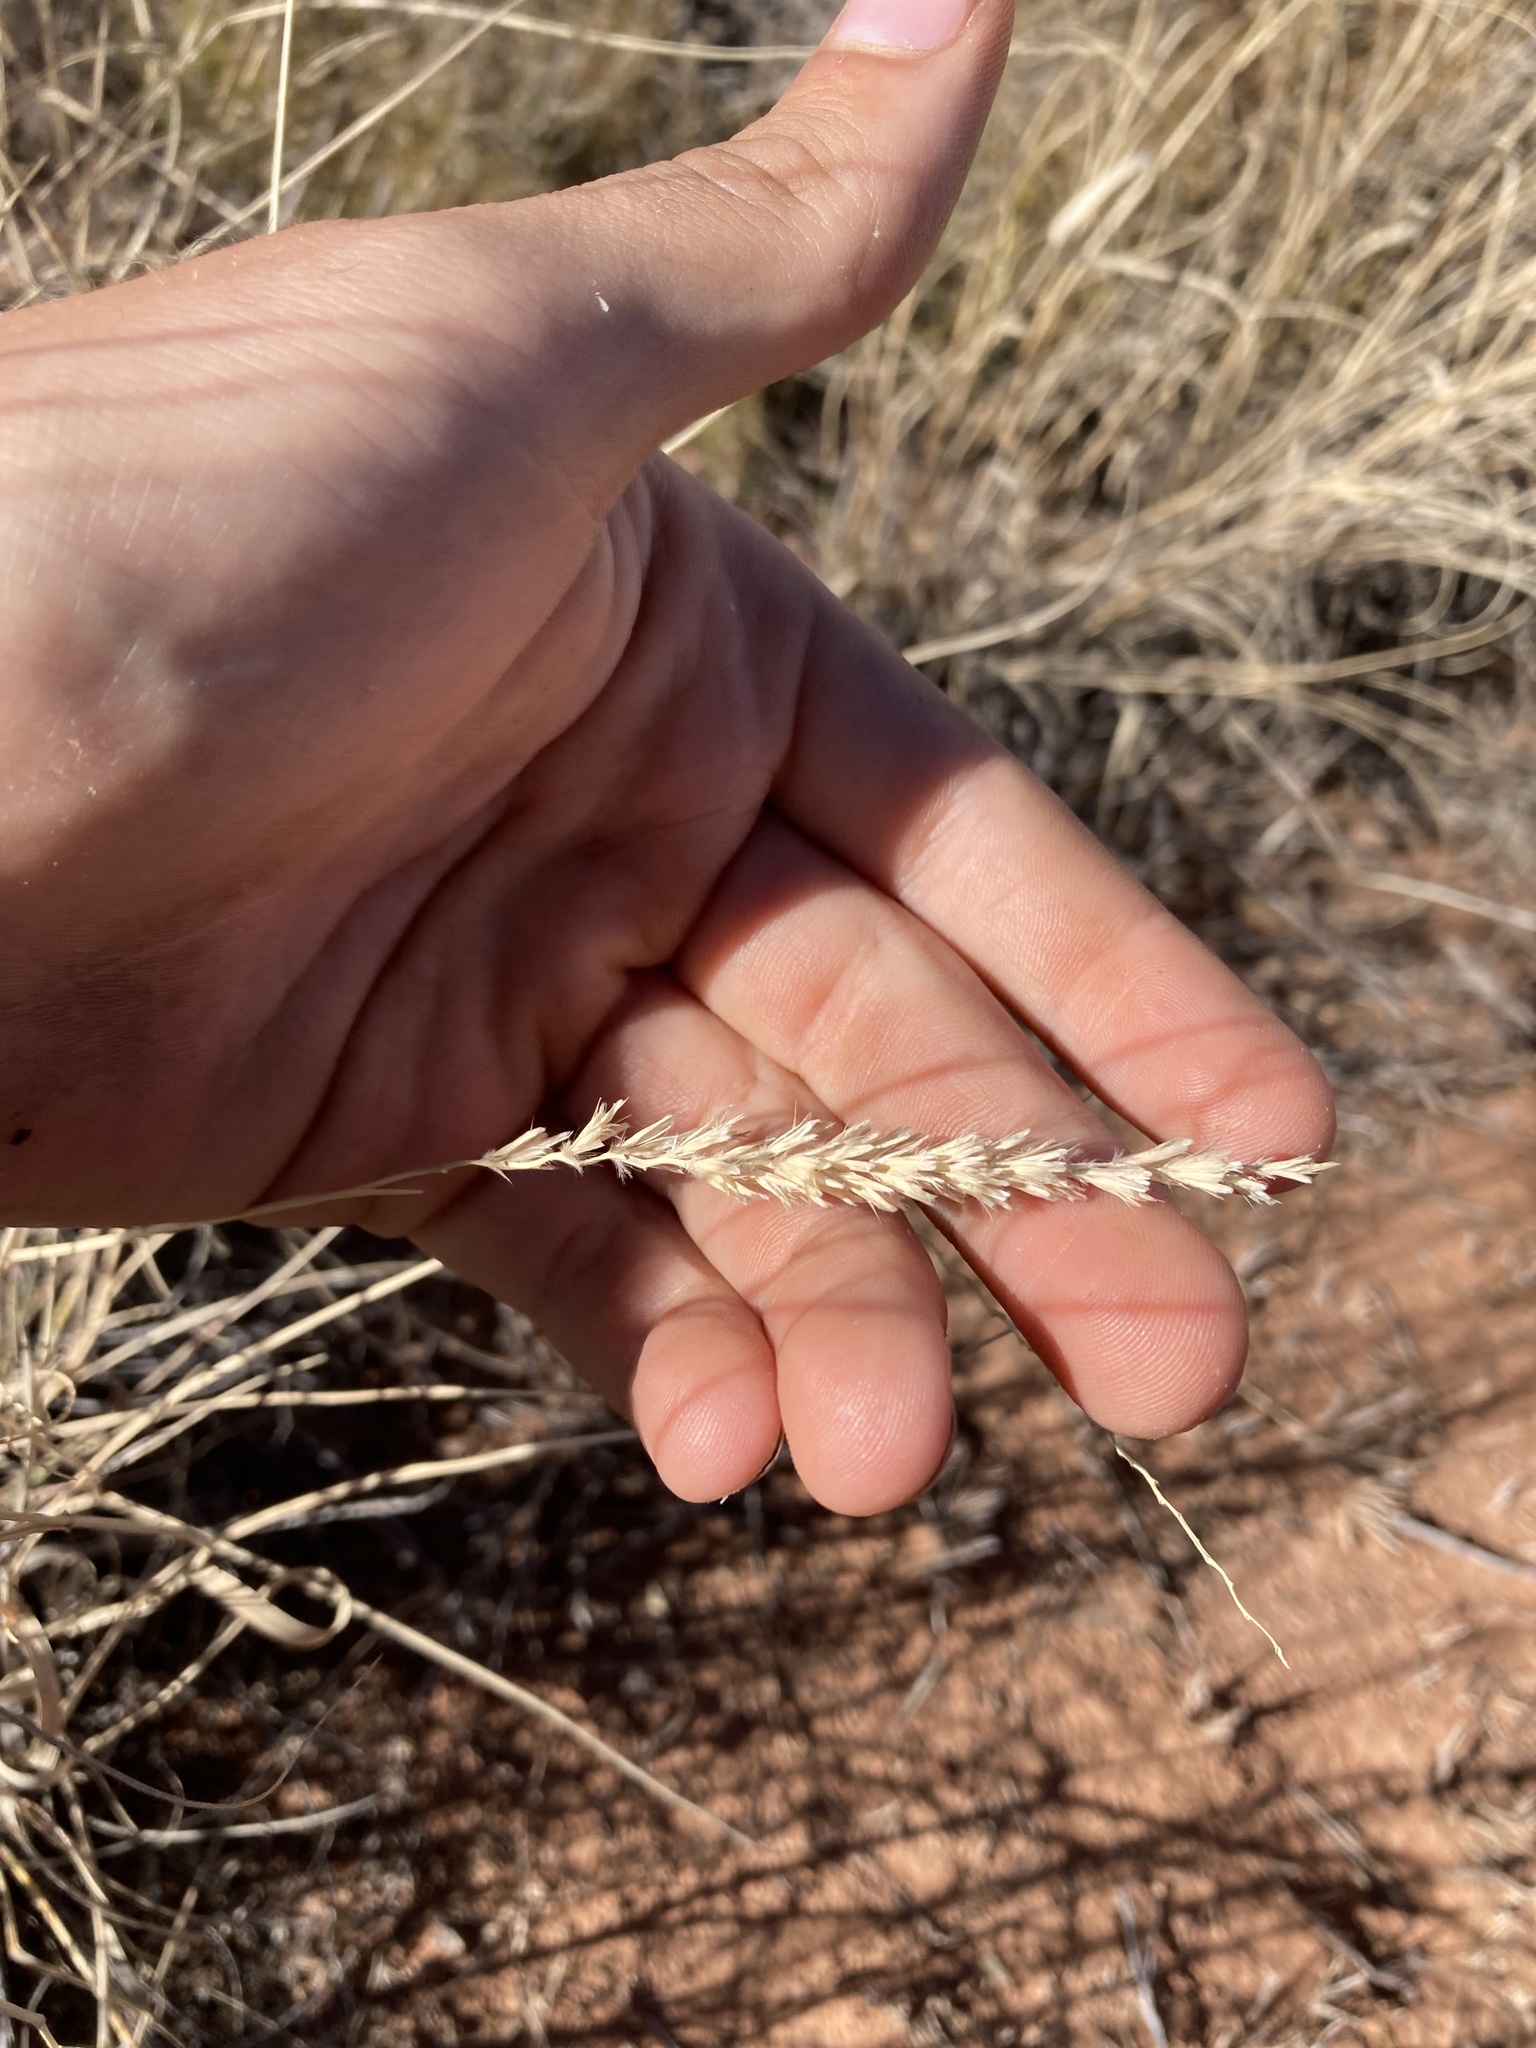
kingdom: Plantae
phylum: Tracheophyta
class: Liliopsida
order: Poales
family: Poaceae
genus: Hilaria
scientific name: Hilaria jamesii
